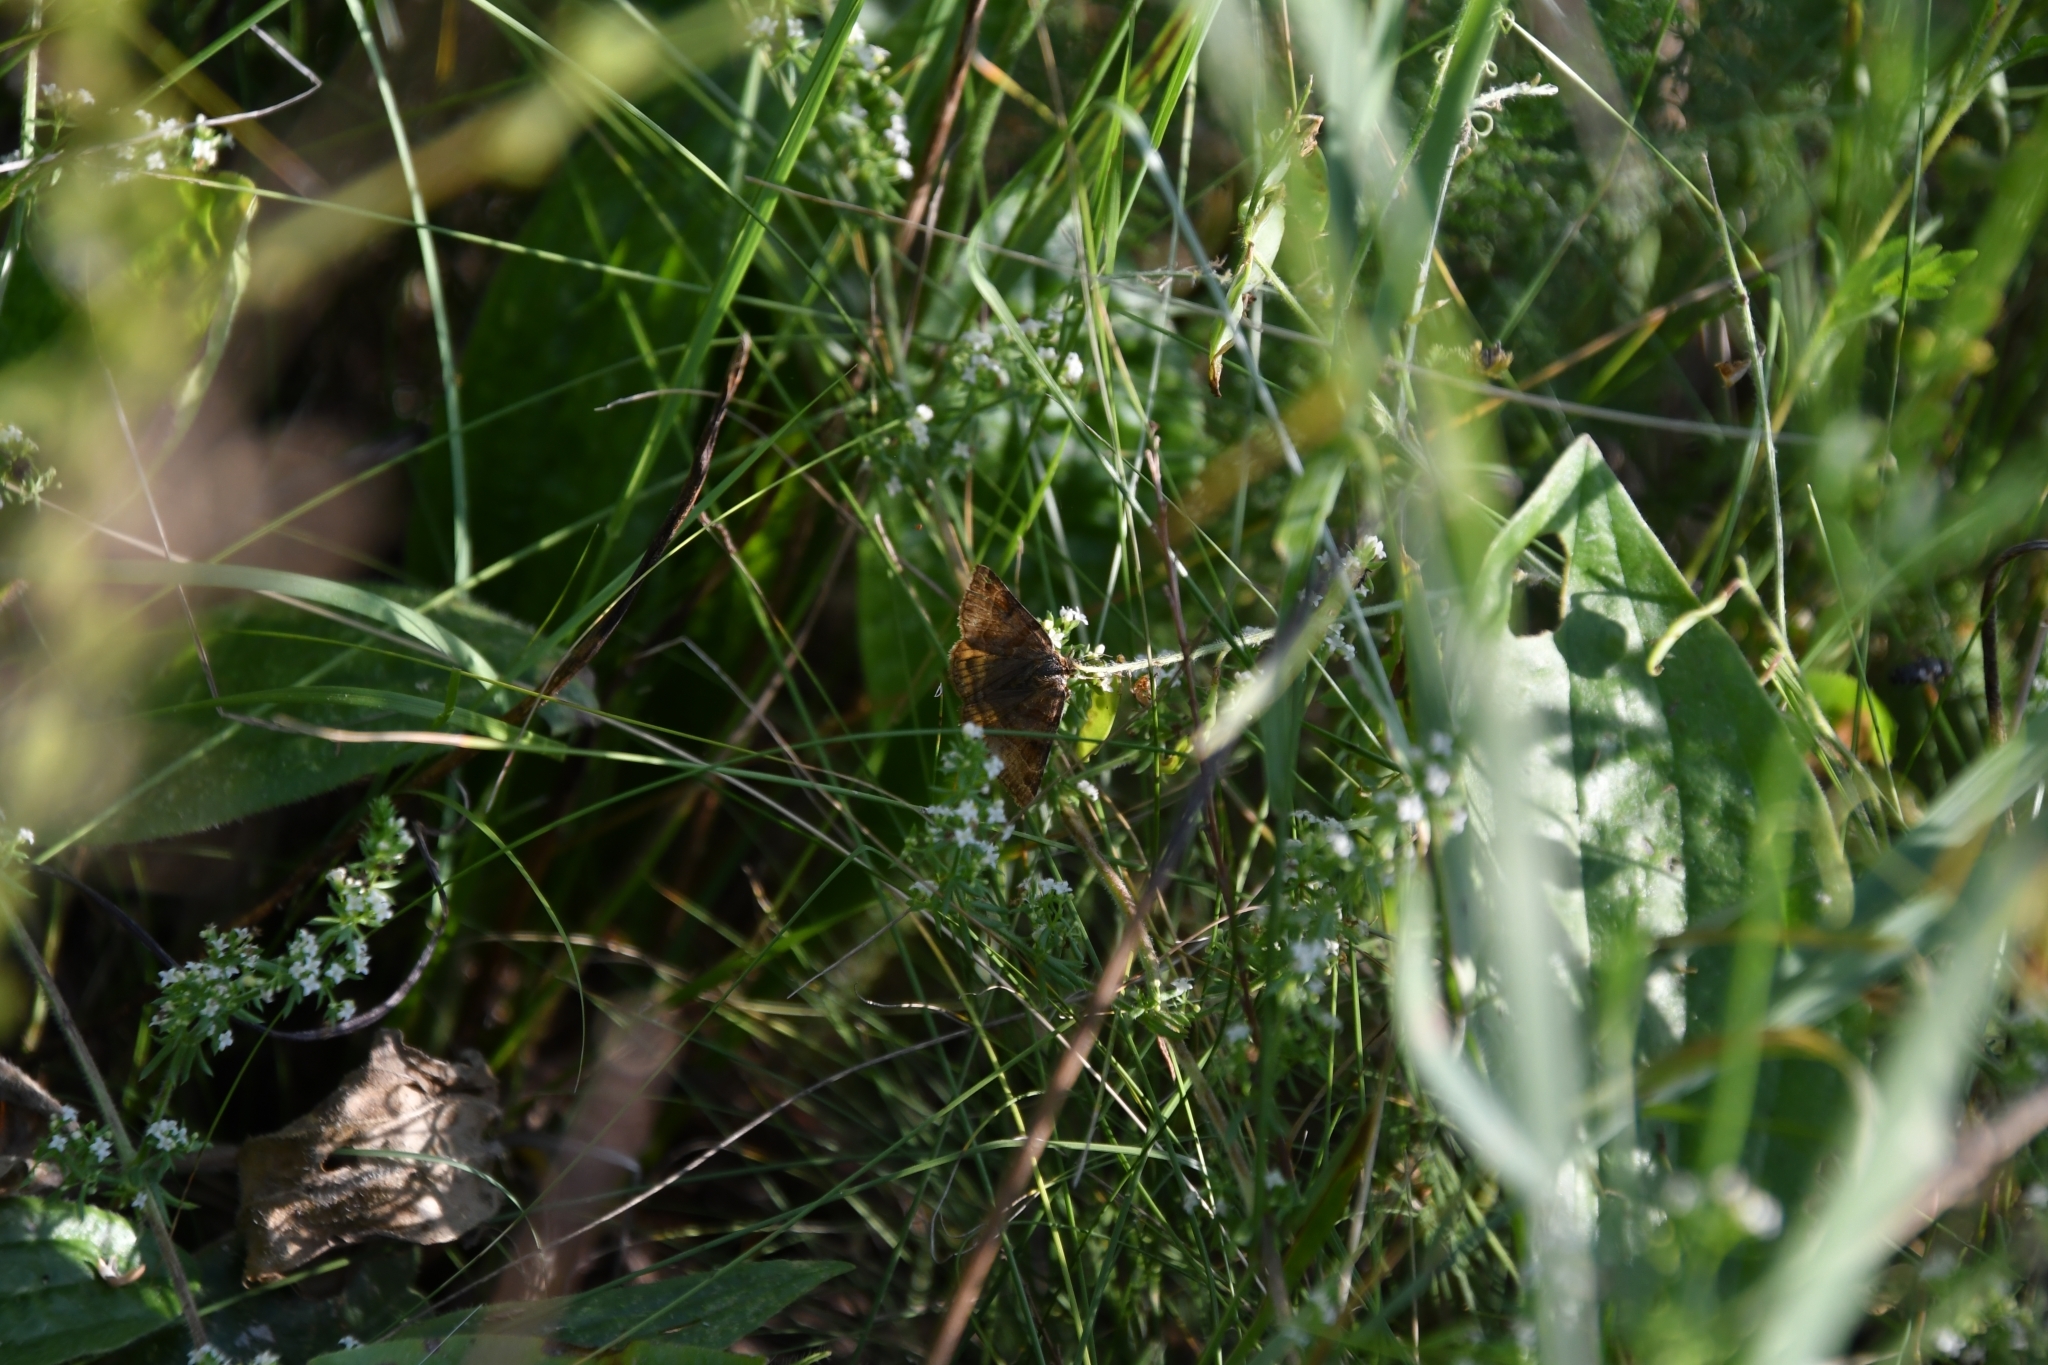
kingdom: Animalia
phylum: Arthropoda
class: Insecta
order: Lepidoptera
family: Erebidae
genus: Euclidia
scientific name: Euclidia glyphica
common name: Burnet companion
